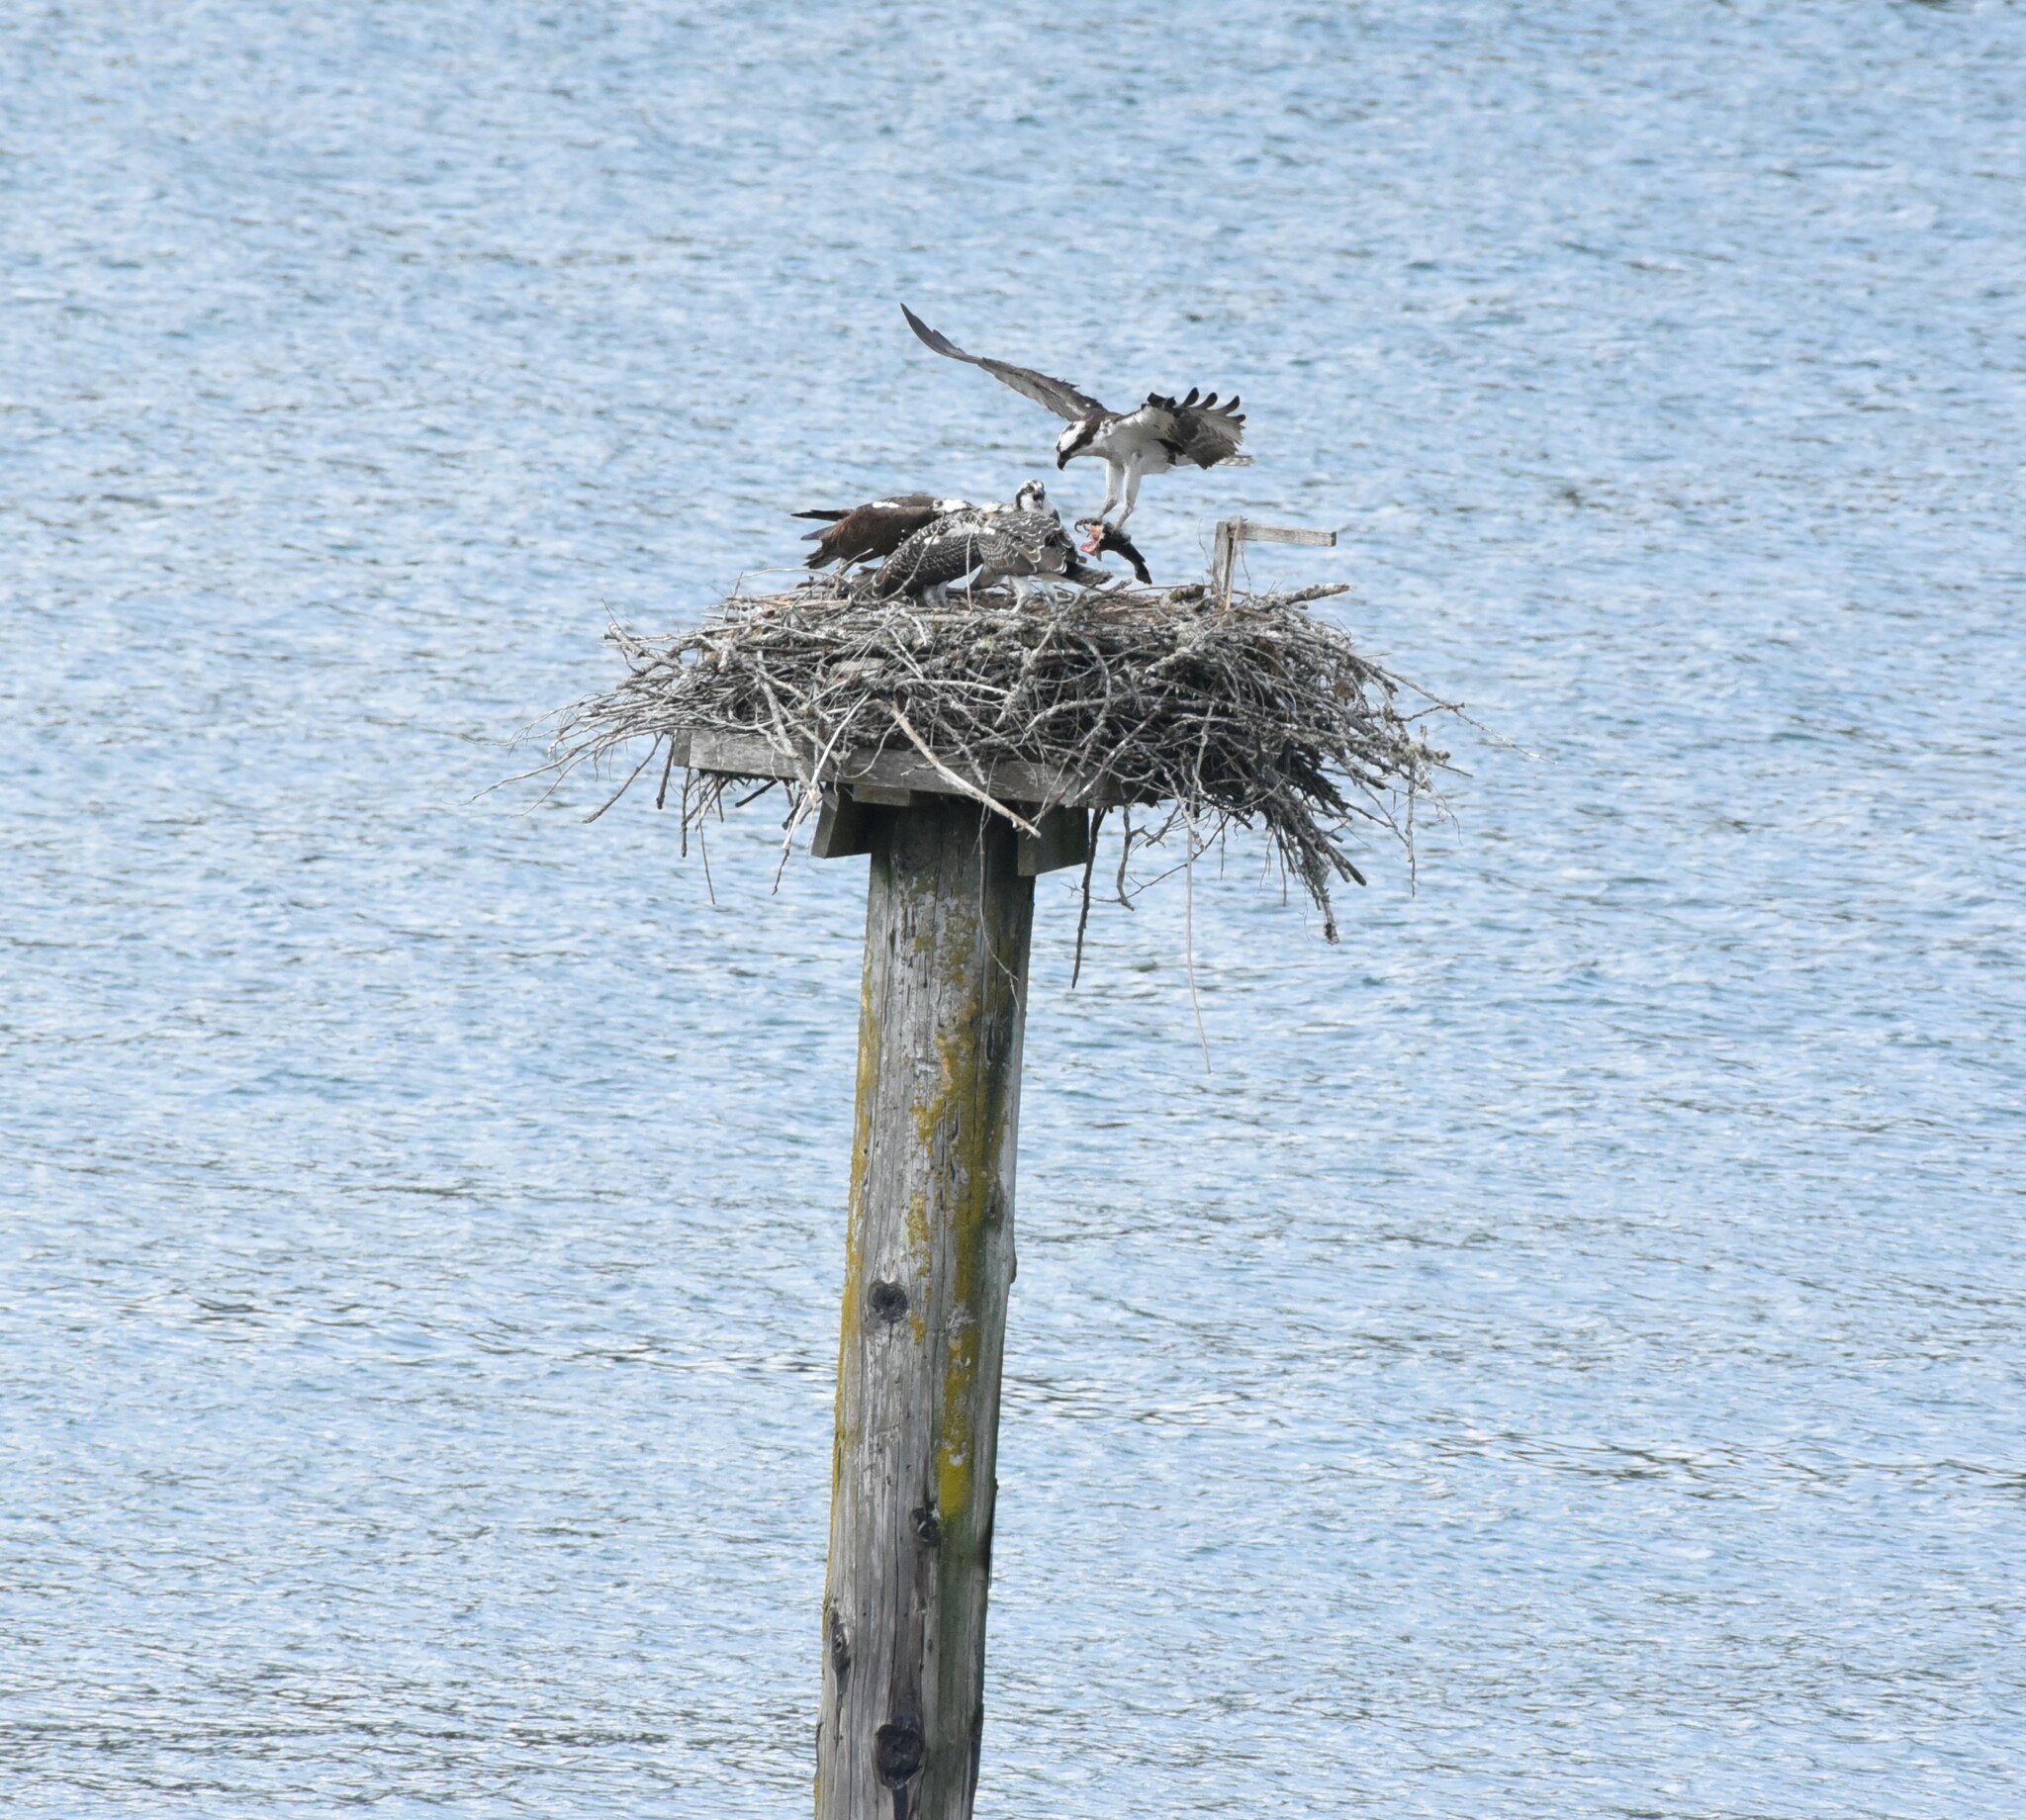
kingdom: Animalia
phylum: Chordata
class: Aves
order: Accipitriformes
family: Pandionidae
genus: Pandion
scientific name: Pandion haliaetus
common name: Osprey
